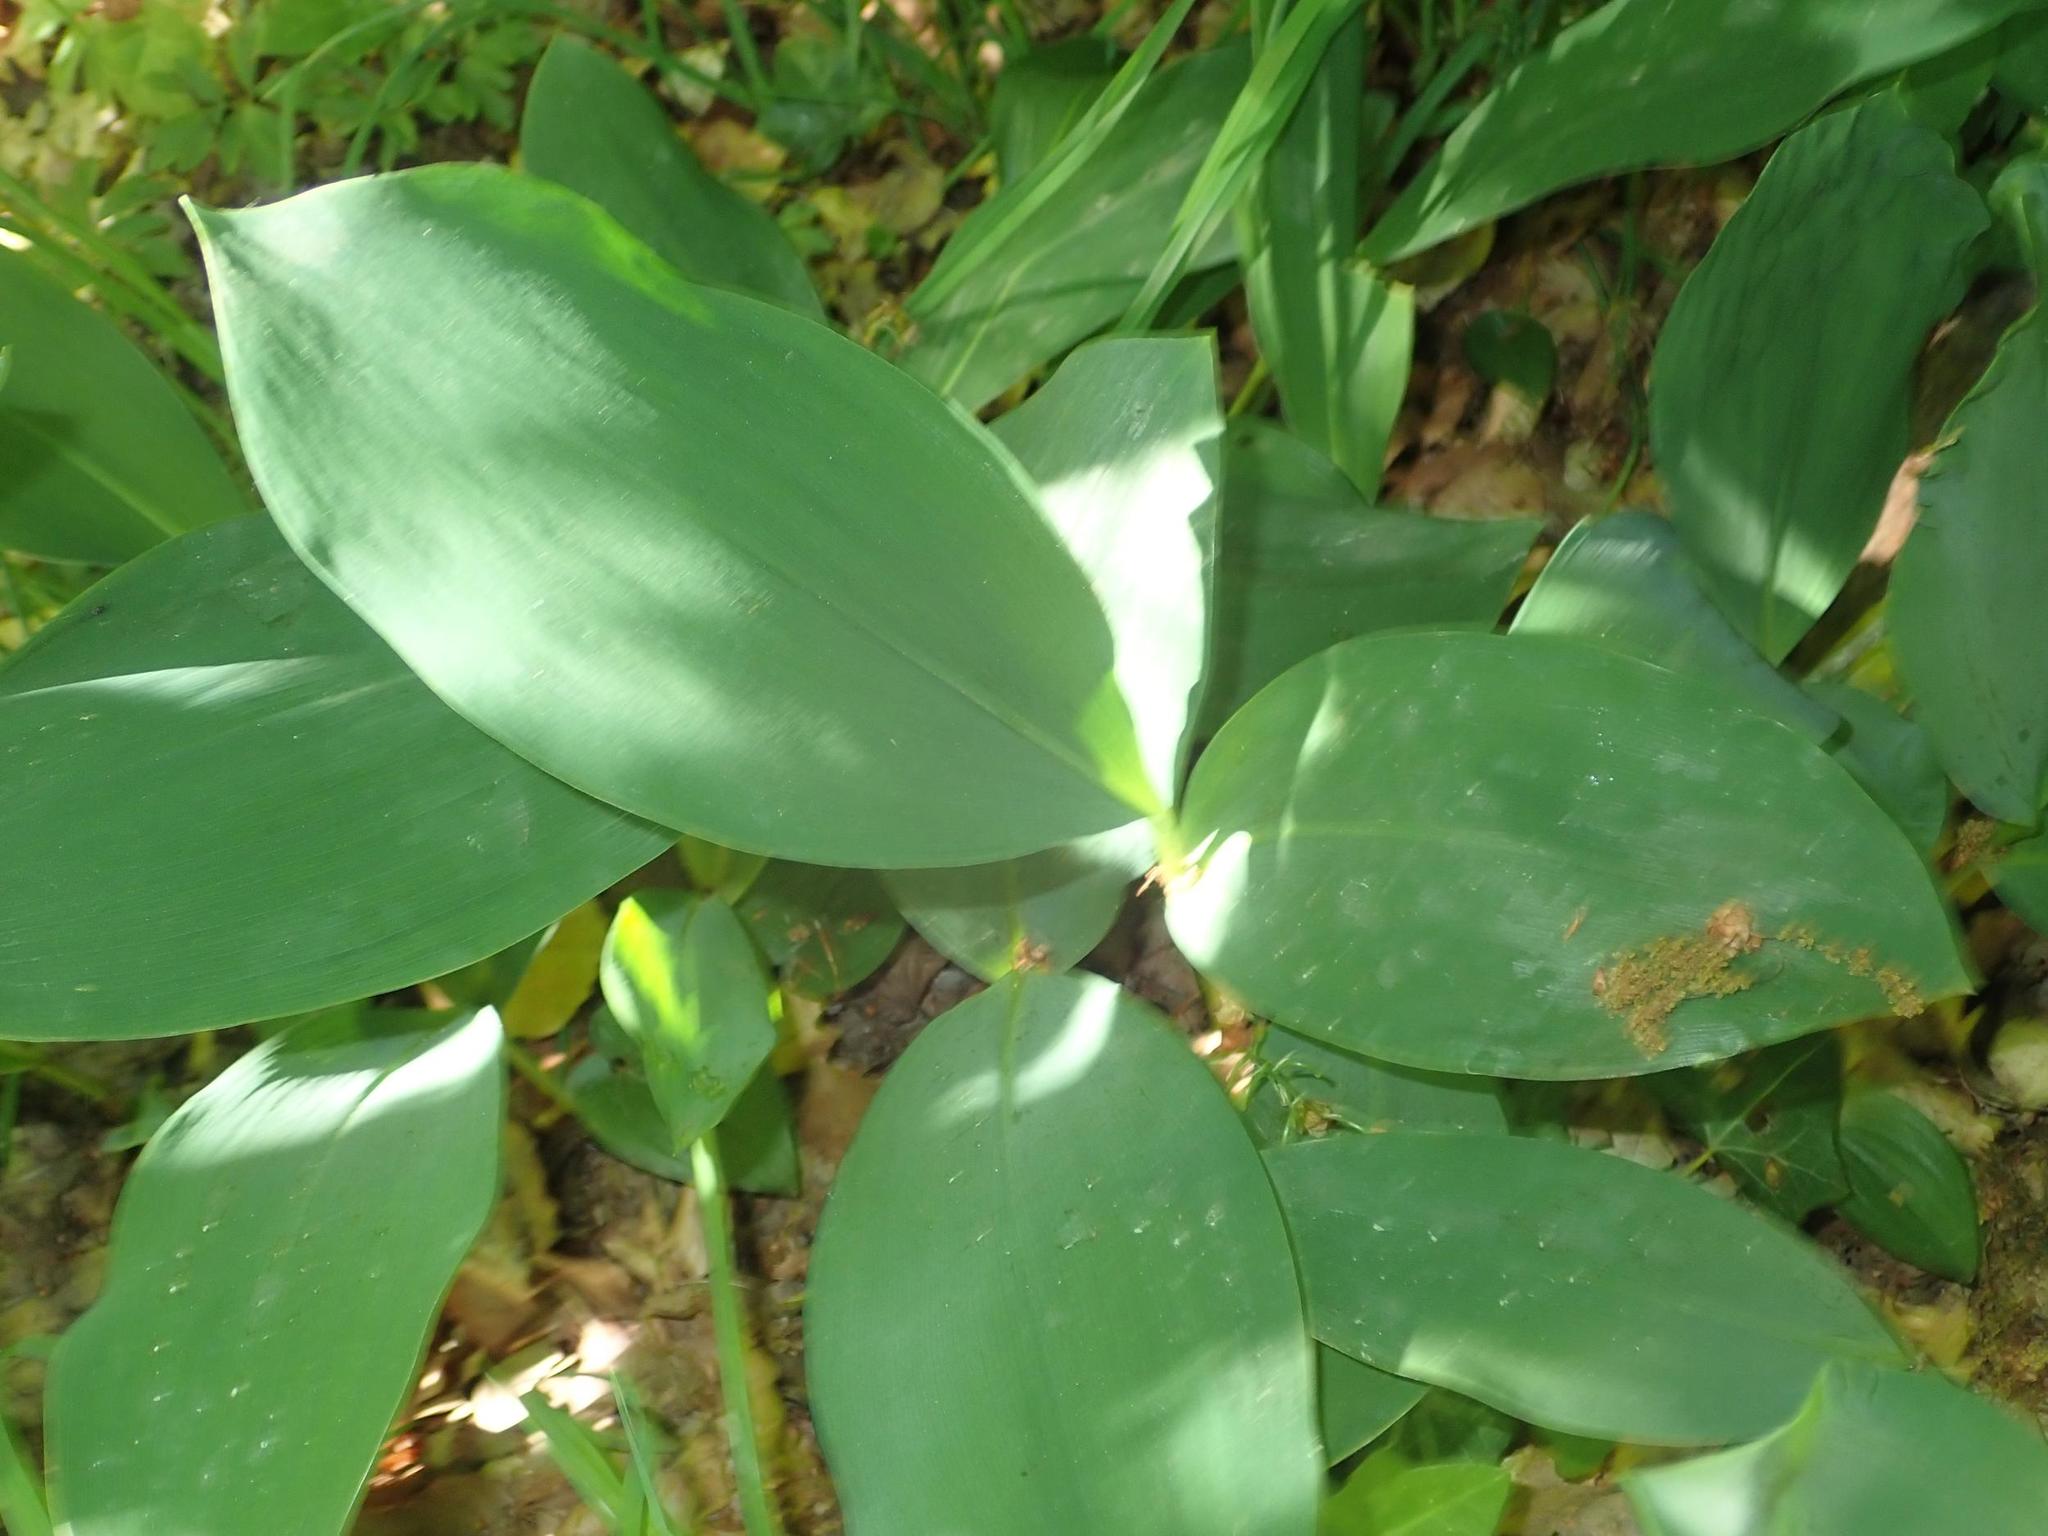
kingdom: Plantae
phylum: Tracheophyta
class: Liliopsida
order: Asparagales
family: Asparagaceae
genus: Convallaria
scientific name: Convallaria majalis
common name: Lily-of-the-valley
